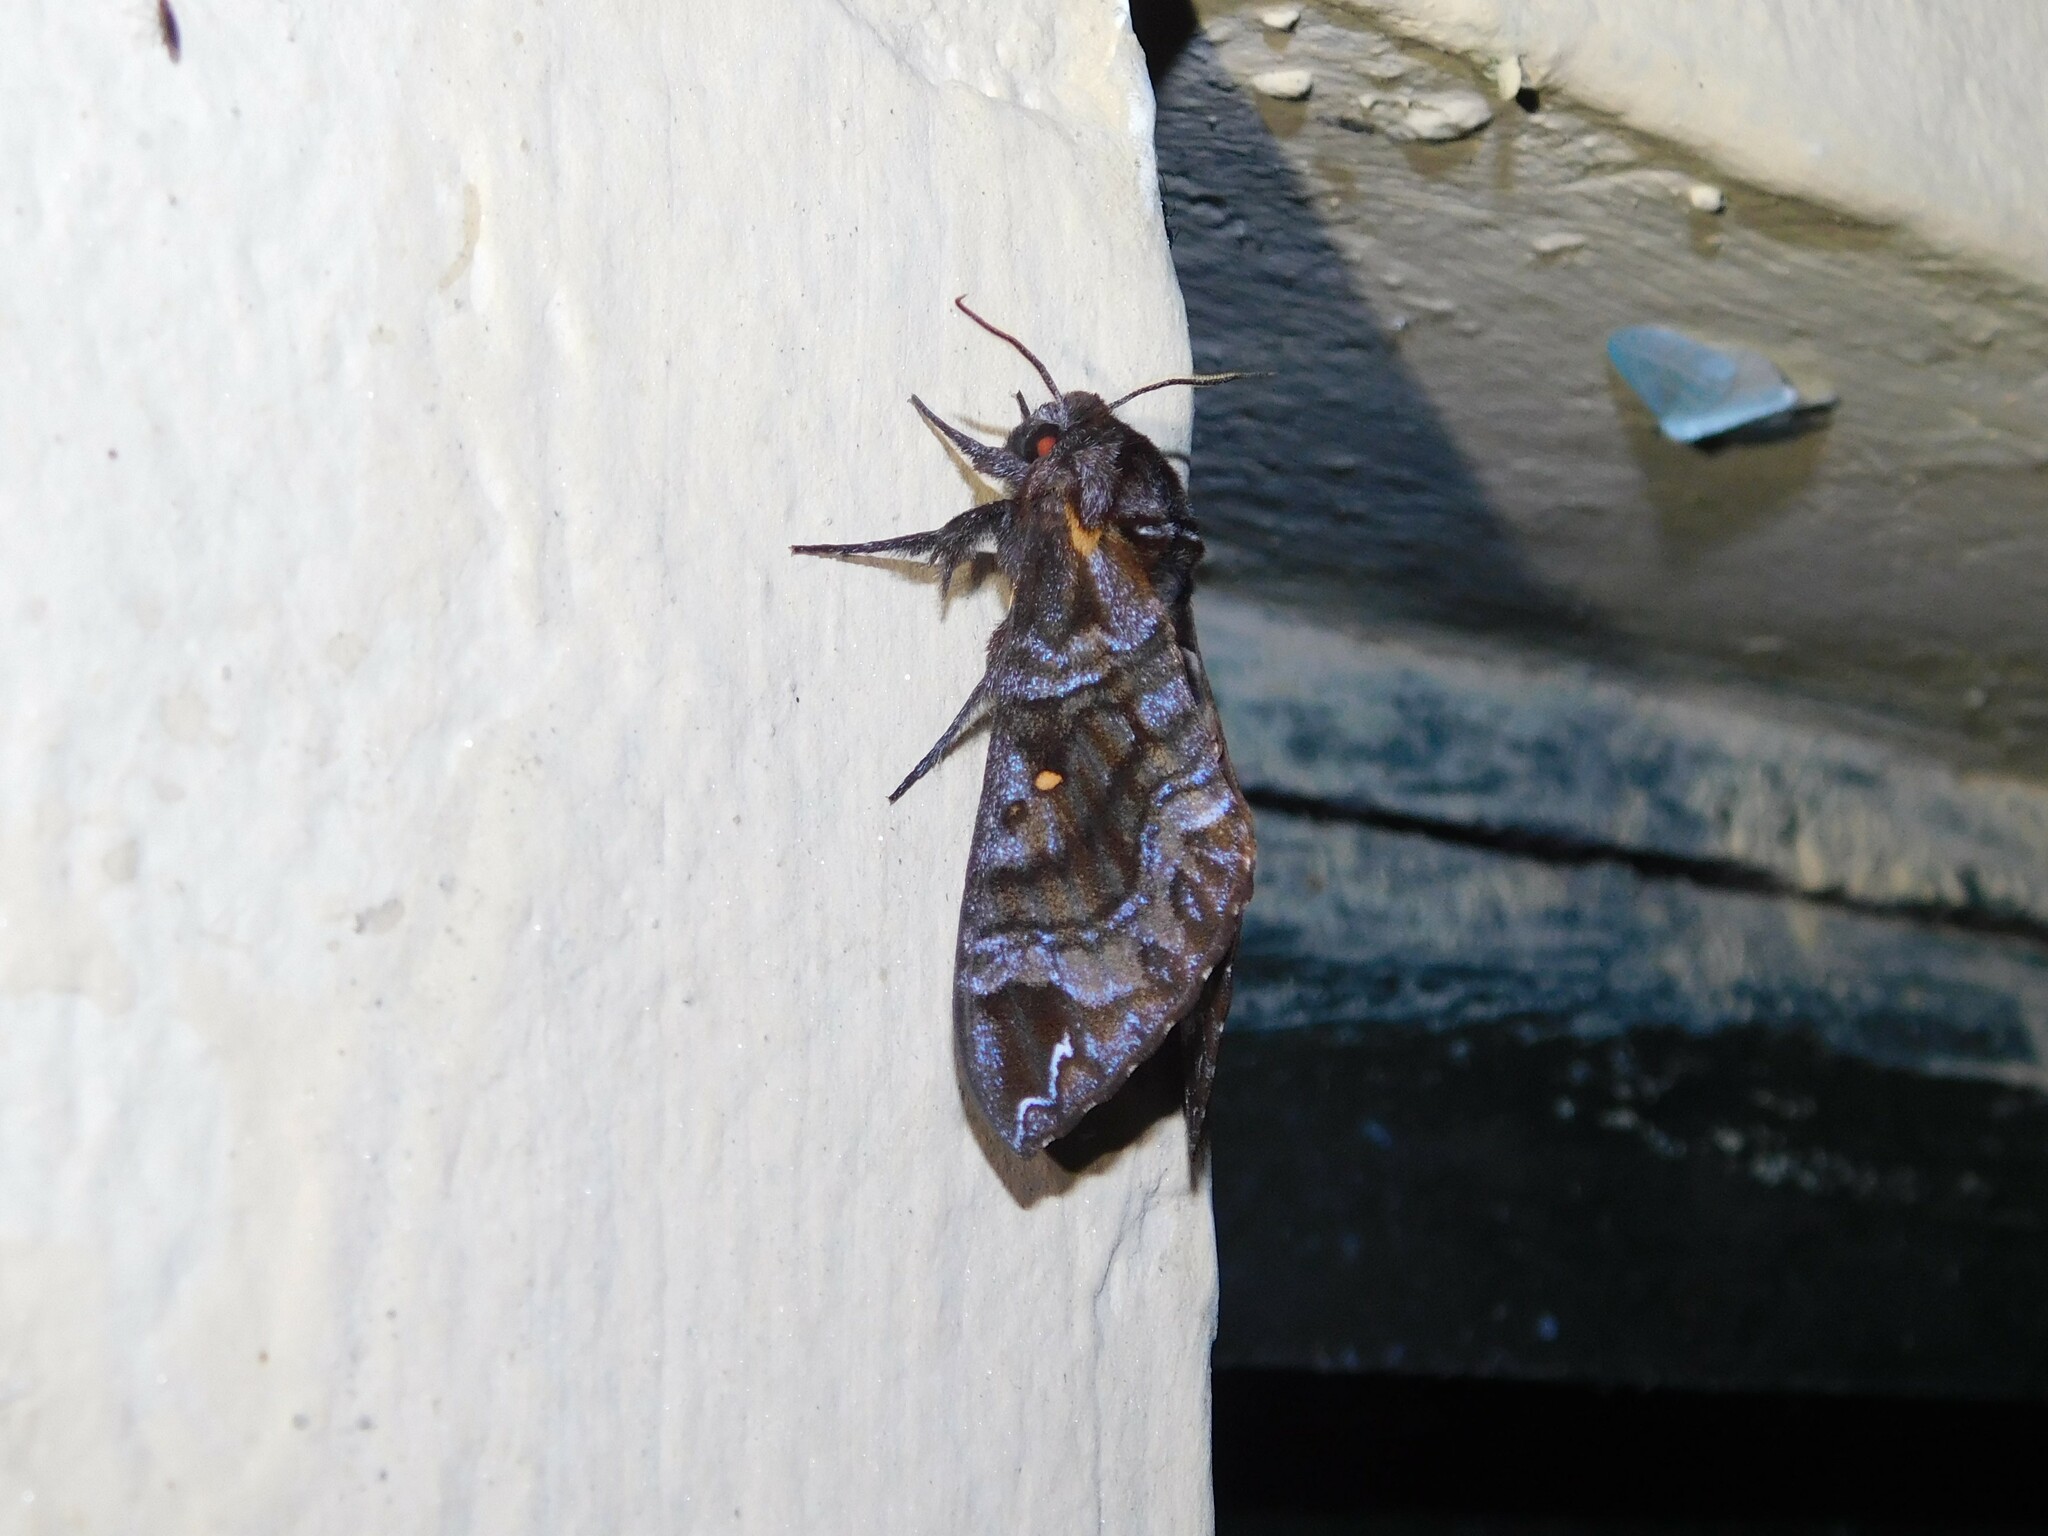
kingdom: Animalia
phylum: Arthropoda
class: Insecta
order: Lepidoptera
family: Sphingidae
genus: Dovania
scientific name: Dovania poecila
